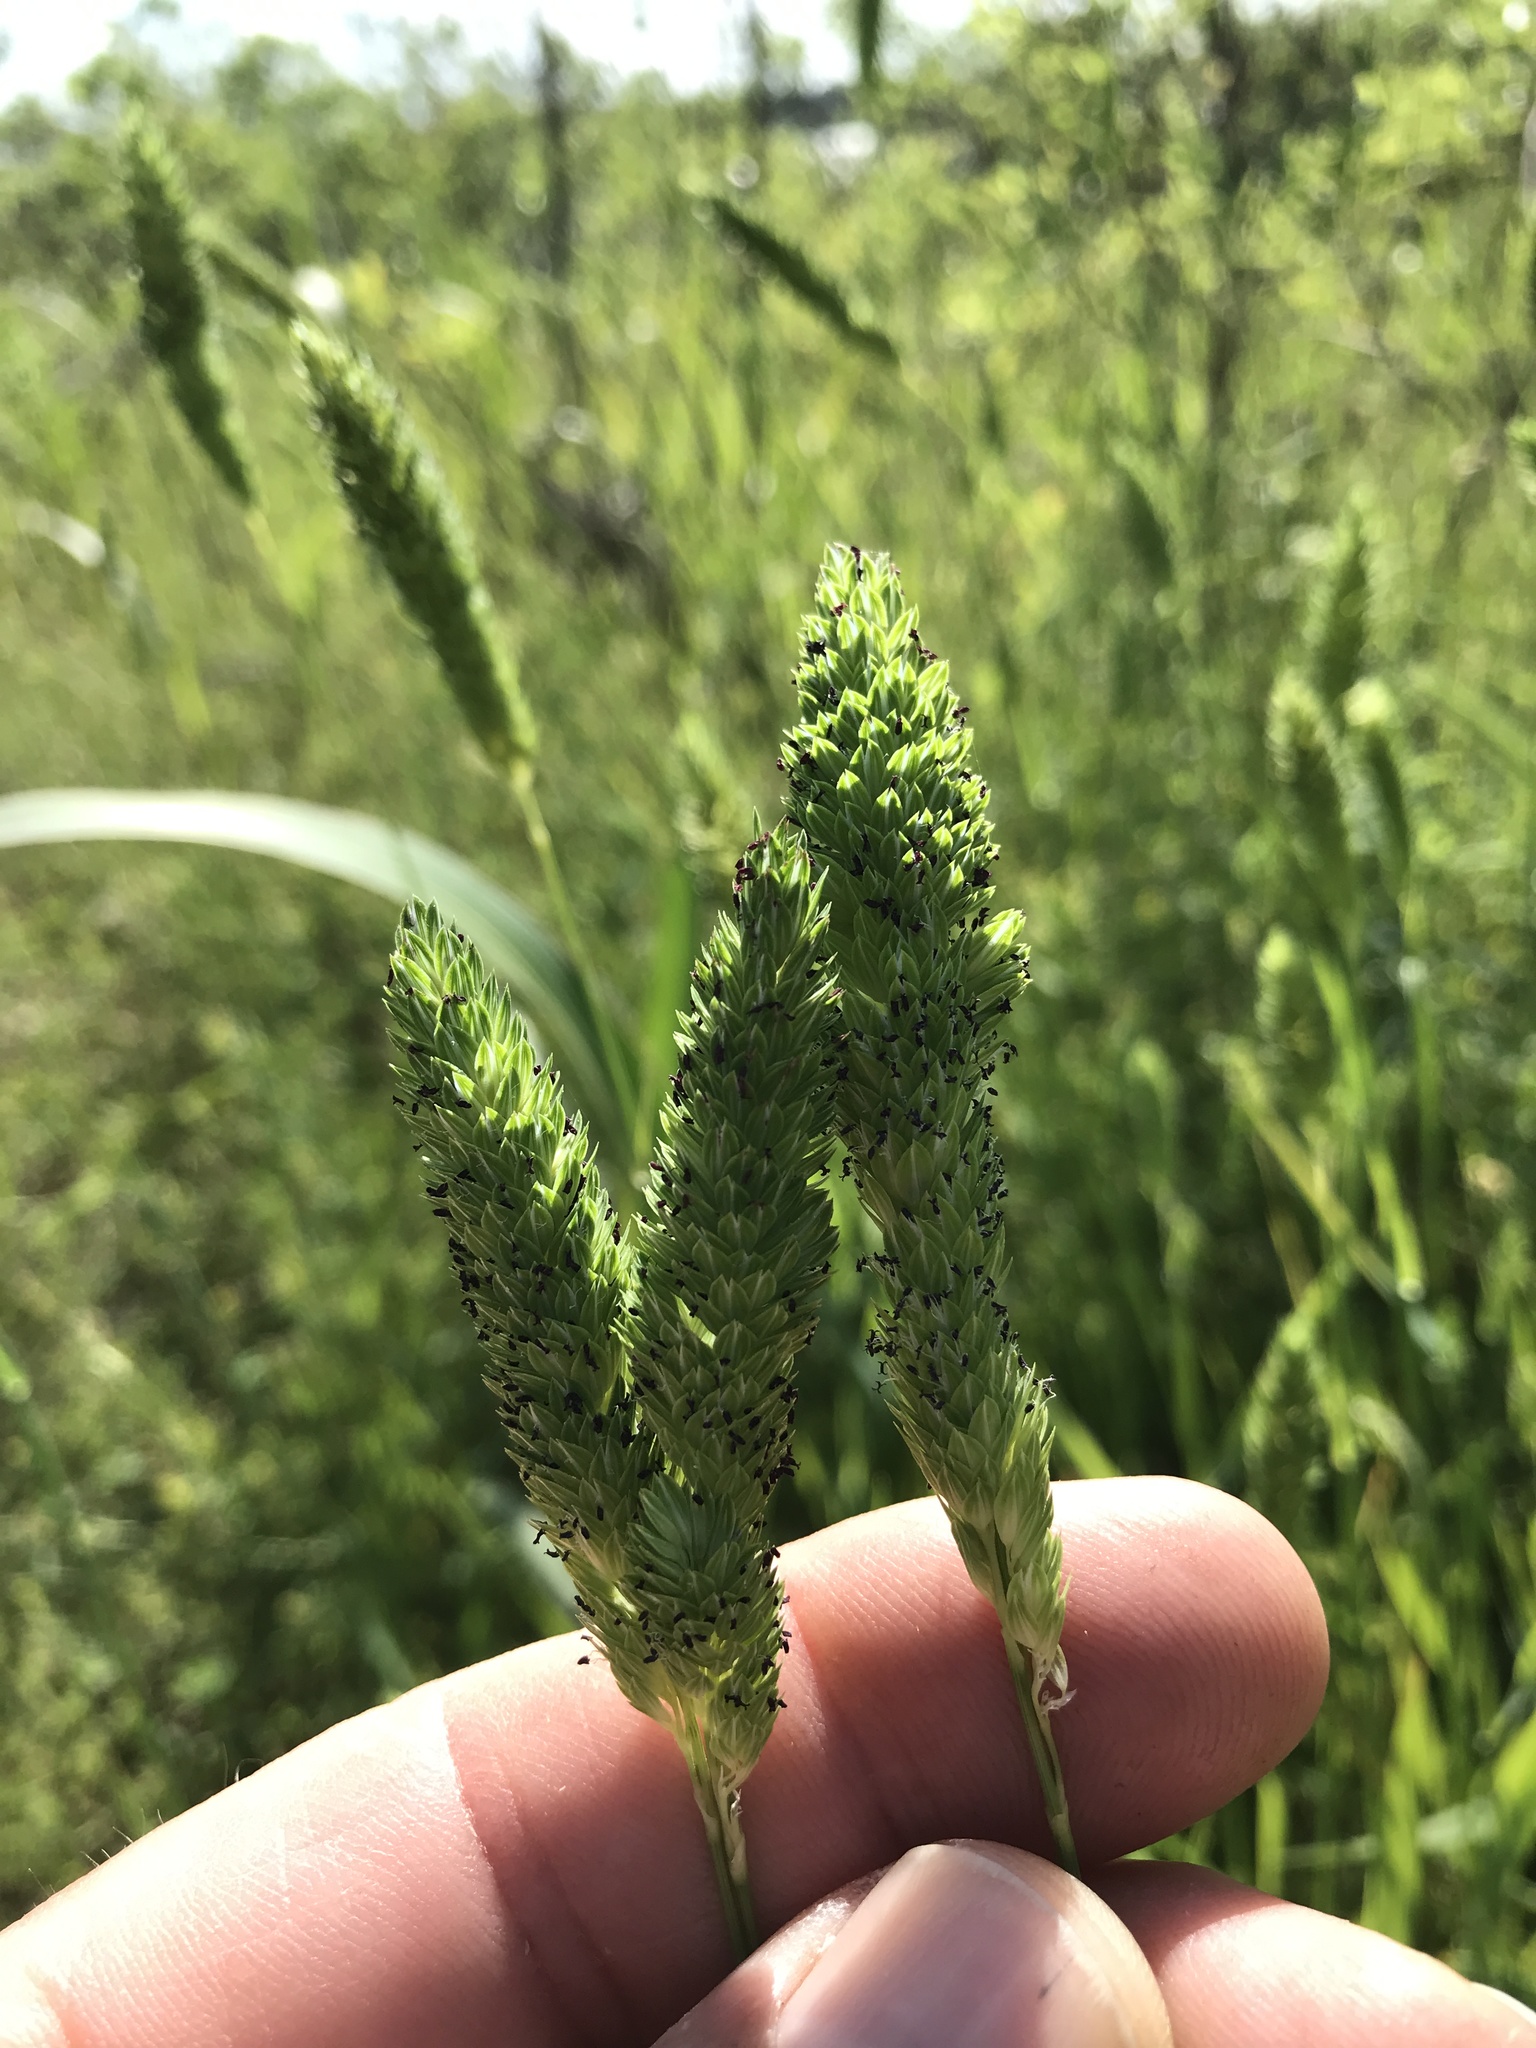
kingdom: Plantae
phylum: Tracheophyta
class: Liliopsida
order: Poales
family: Poaceae
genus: Phalaris
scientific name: Phalaris caroliniana
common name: May grass
